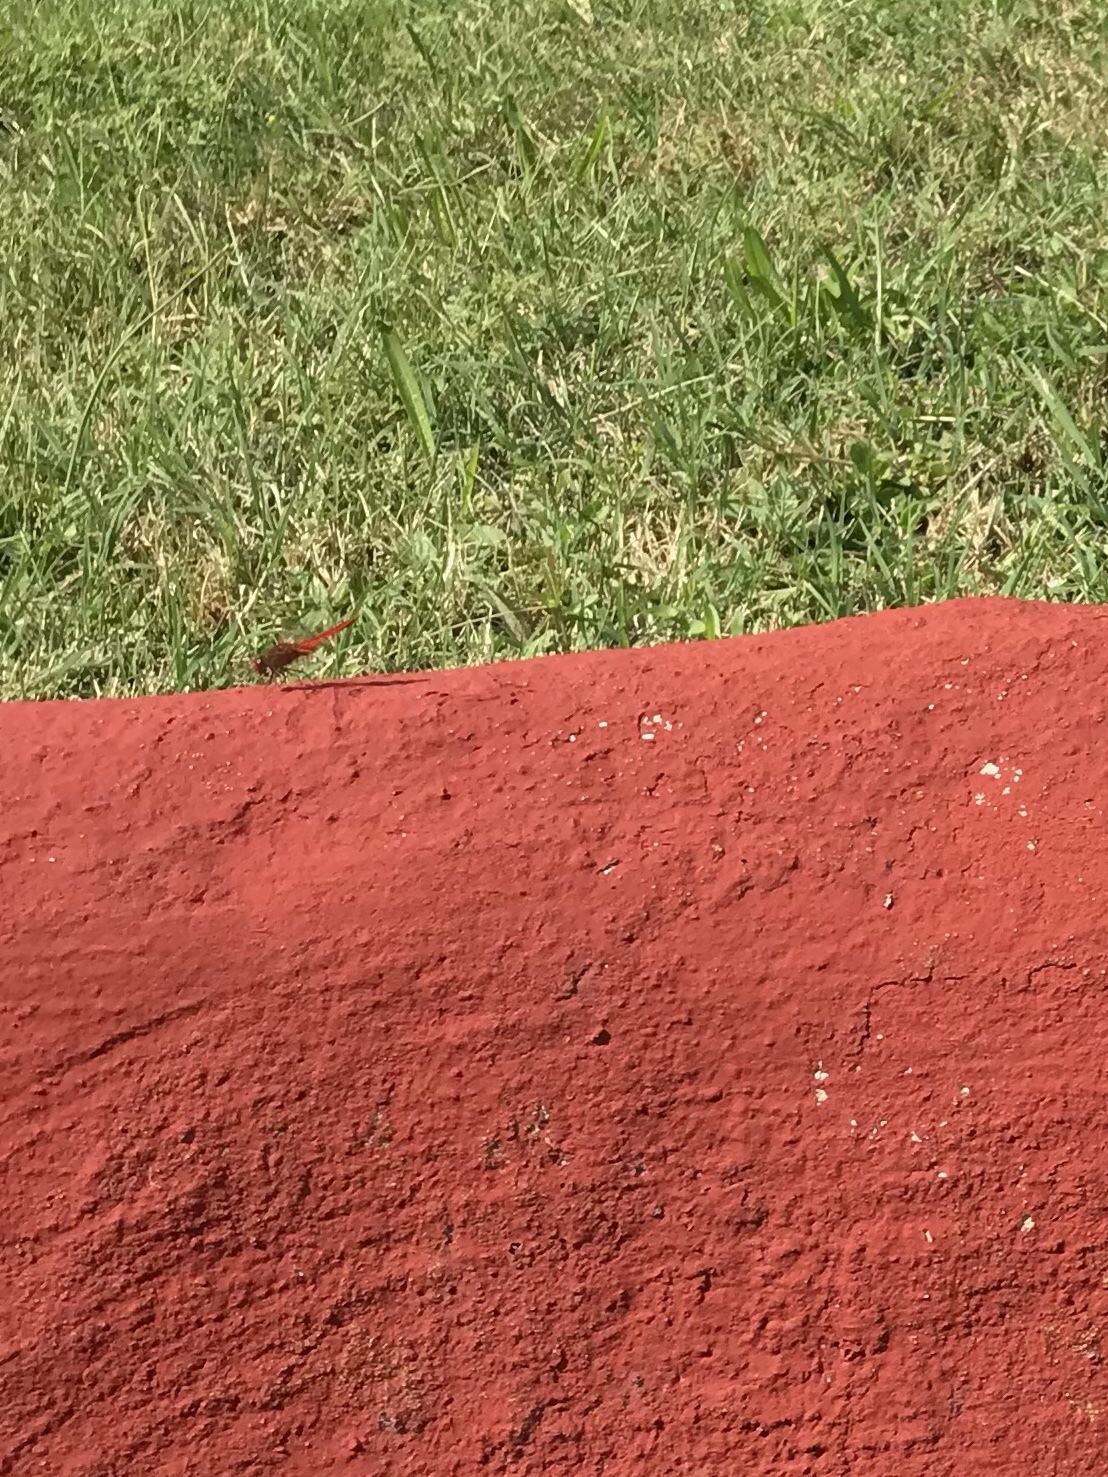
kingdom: Animalia
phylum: Arthropoda
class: Insecta
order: Odonata
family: Libellulidae
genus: Crocothemis
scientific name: Crocothemis erythraea
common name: Scarlet dragonfly
